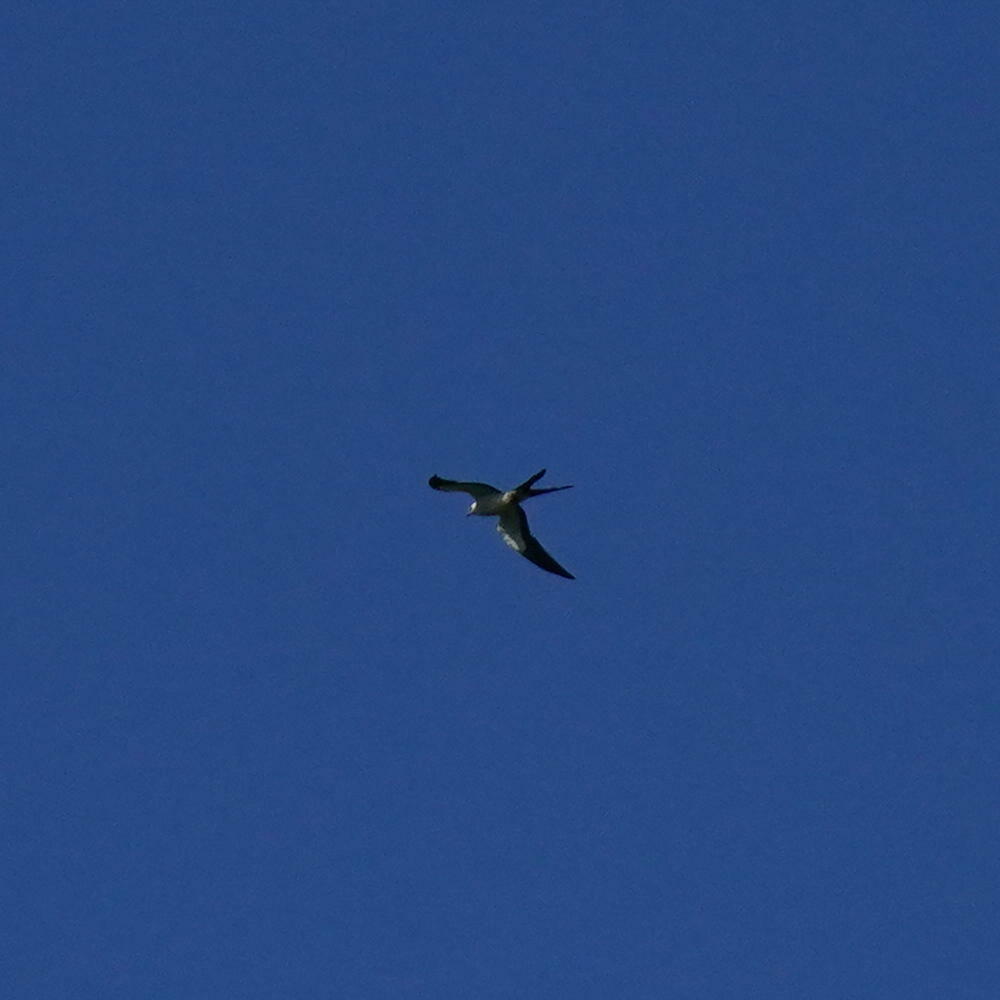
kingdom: Animalia
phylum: Chordata
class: Aves
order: Accipitriformes
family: Accipitridae
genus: Elanoides
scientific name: Elanoides forficatus
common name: Swallow-tailed kite
